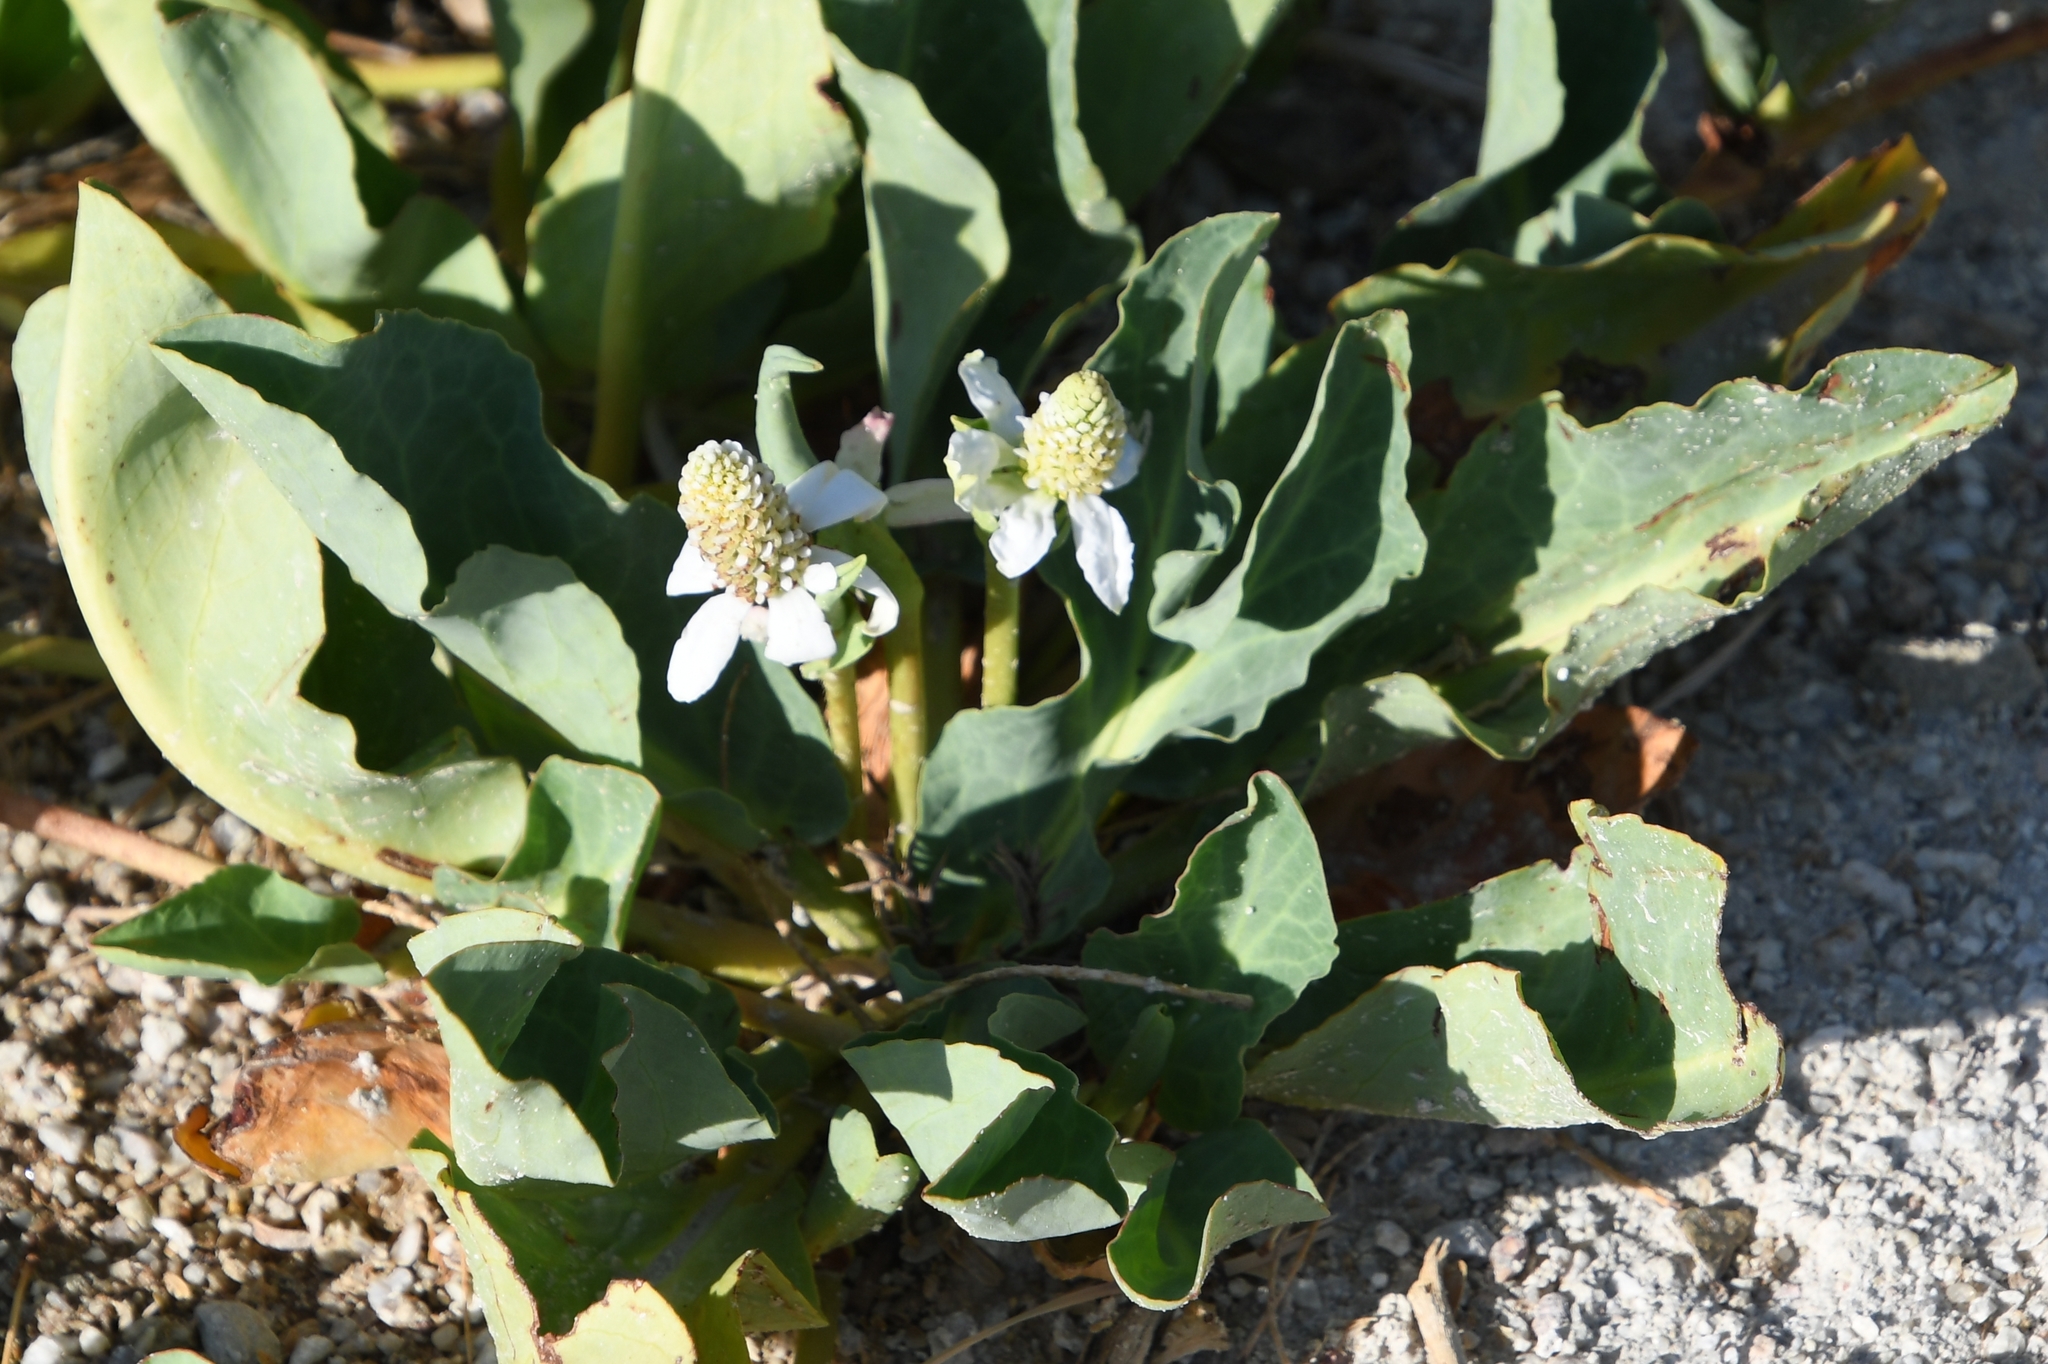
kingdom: Plantae
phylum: Tracheophyta
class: Magnoliopsida
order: Piperales
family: Saururaceae
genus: Anemopsis
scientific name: Anemopsis californica
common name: Apache-beads
